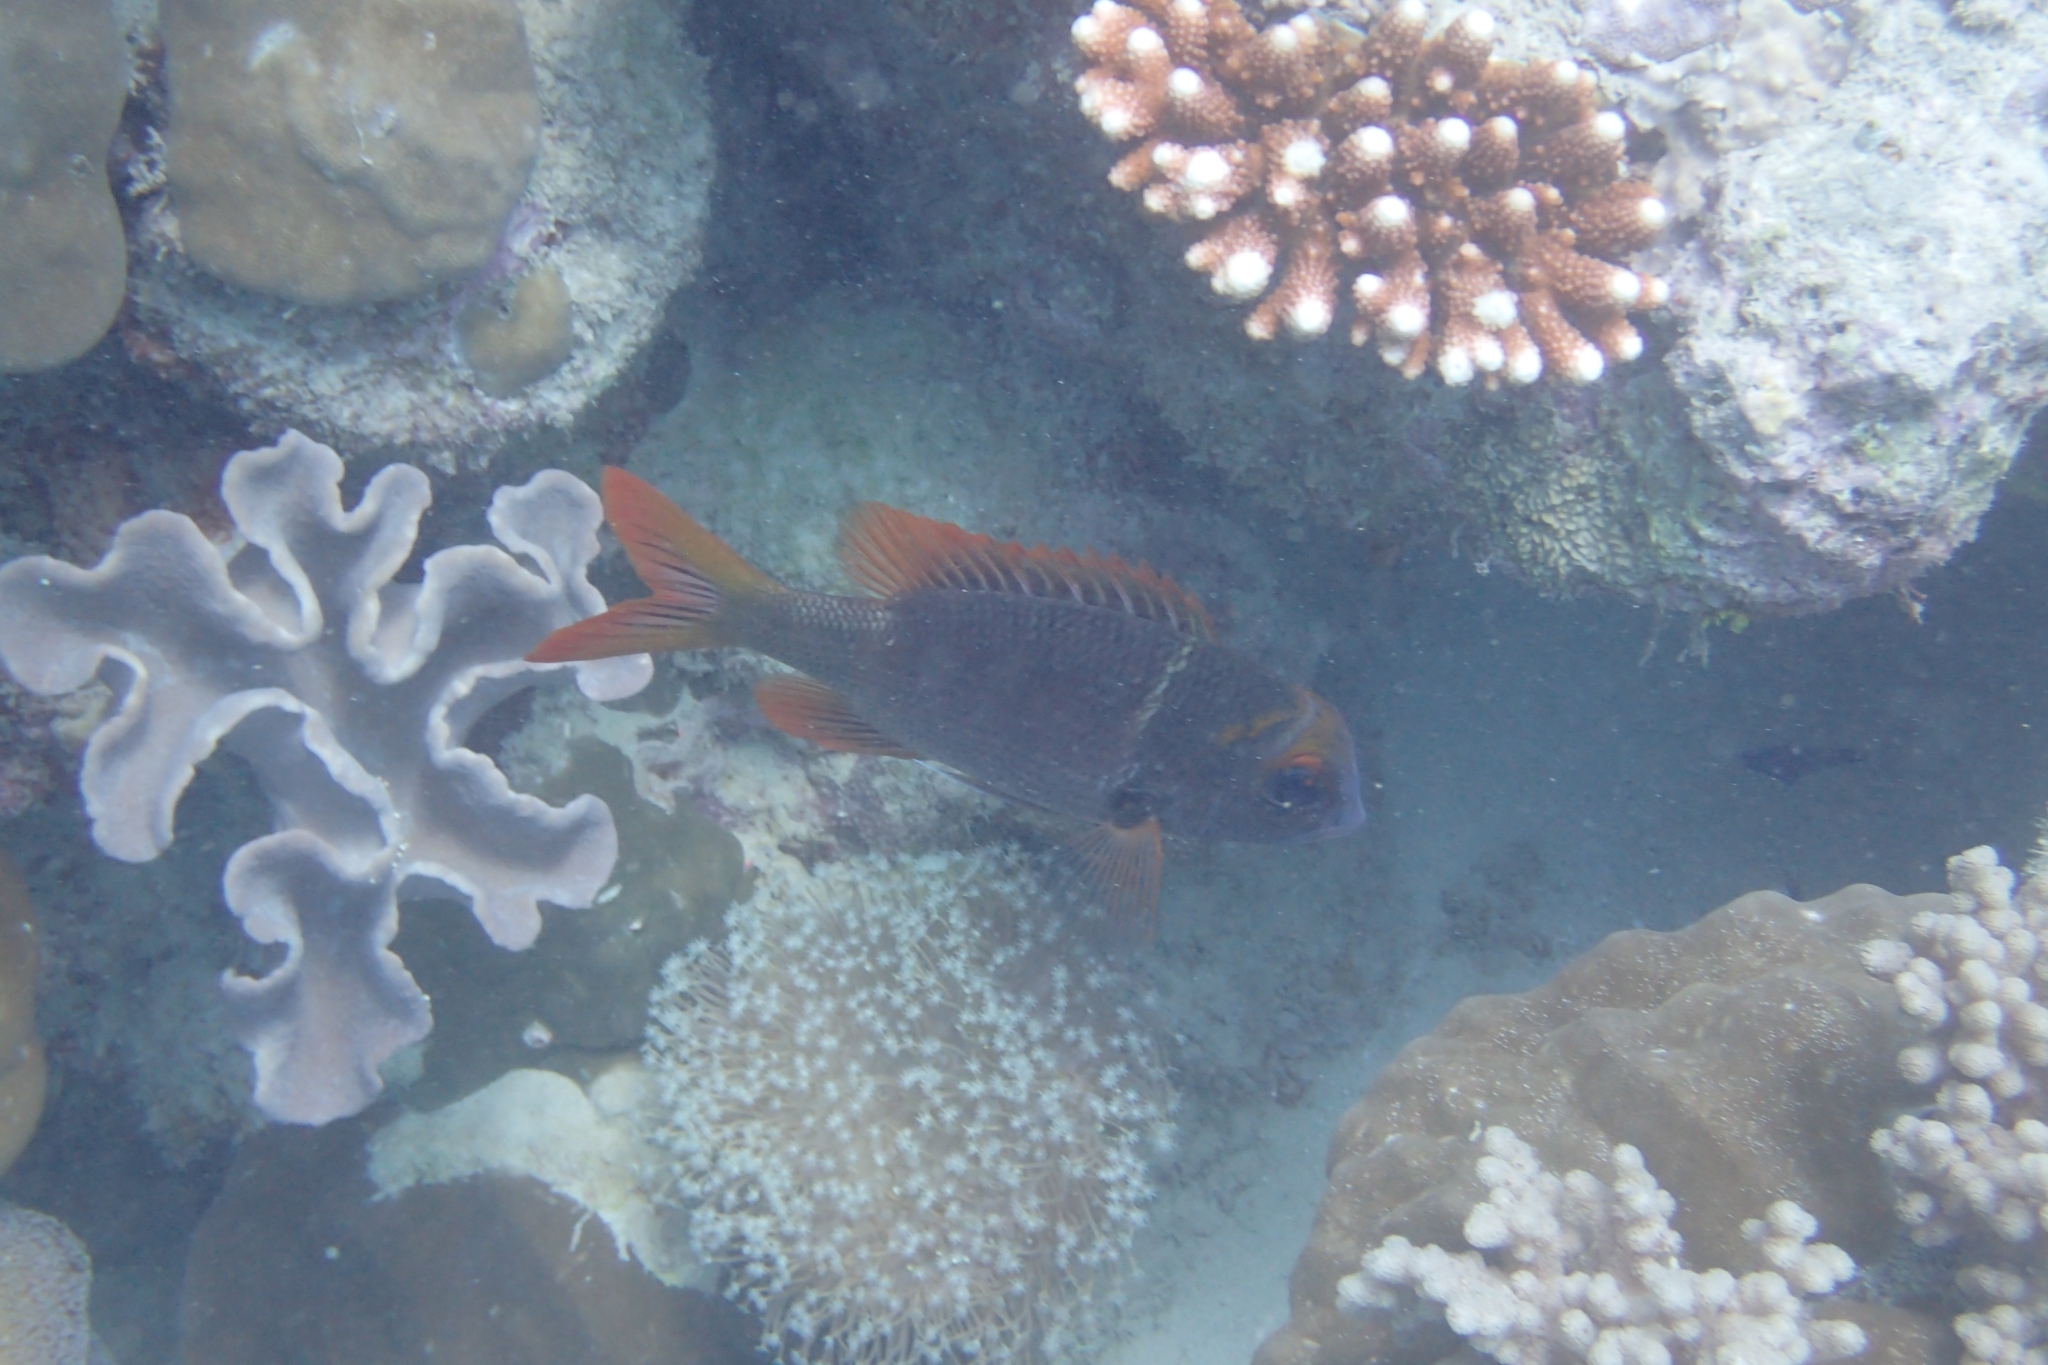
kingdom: Animalia
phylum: Chordata
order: Perciformes
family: Lethrinidae
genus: Monotaxis
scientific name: Monotaxis heterodon
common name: Redfin emperor
